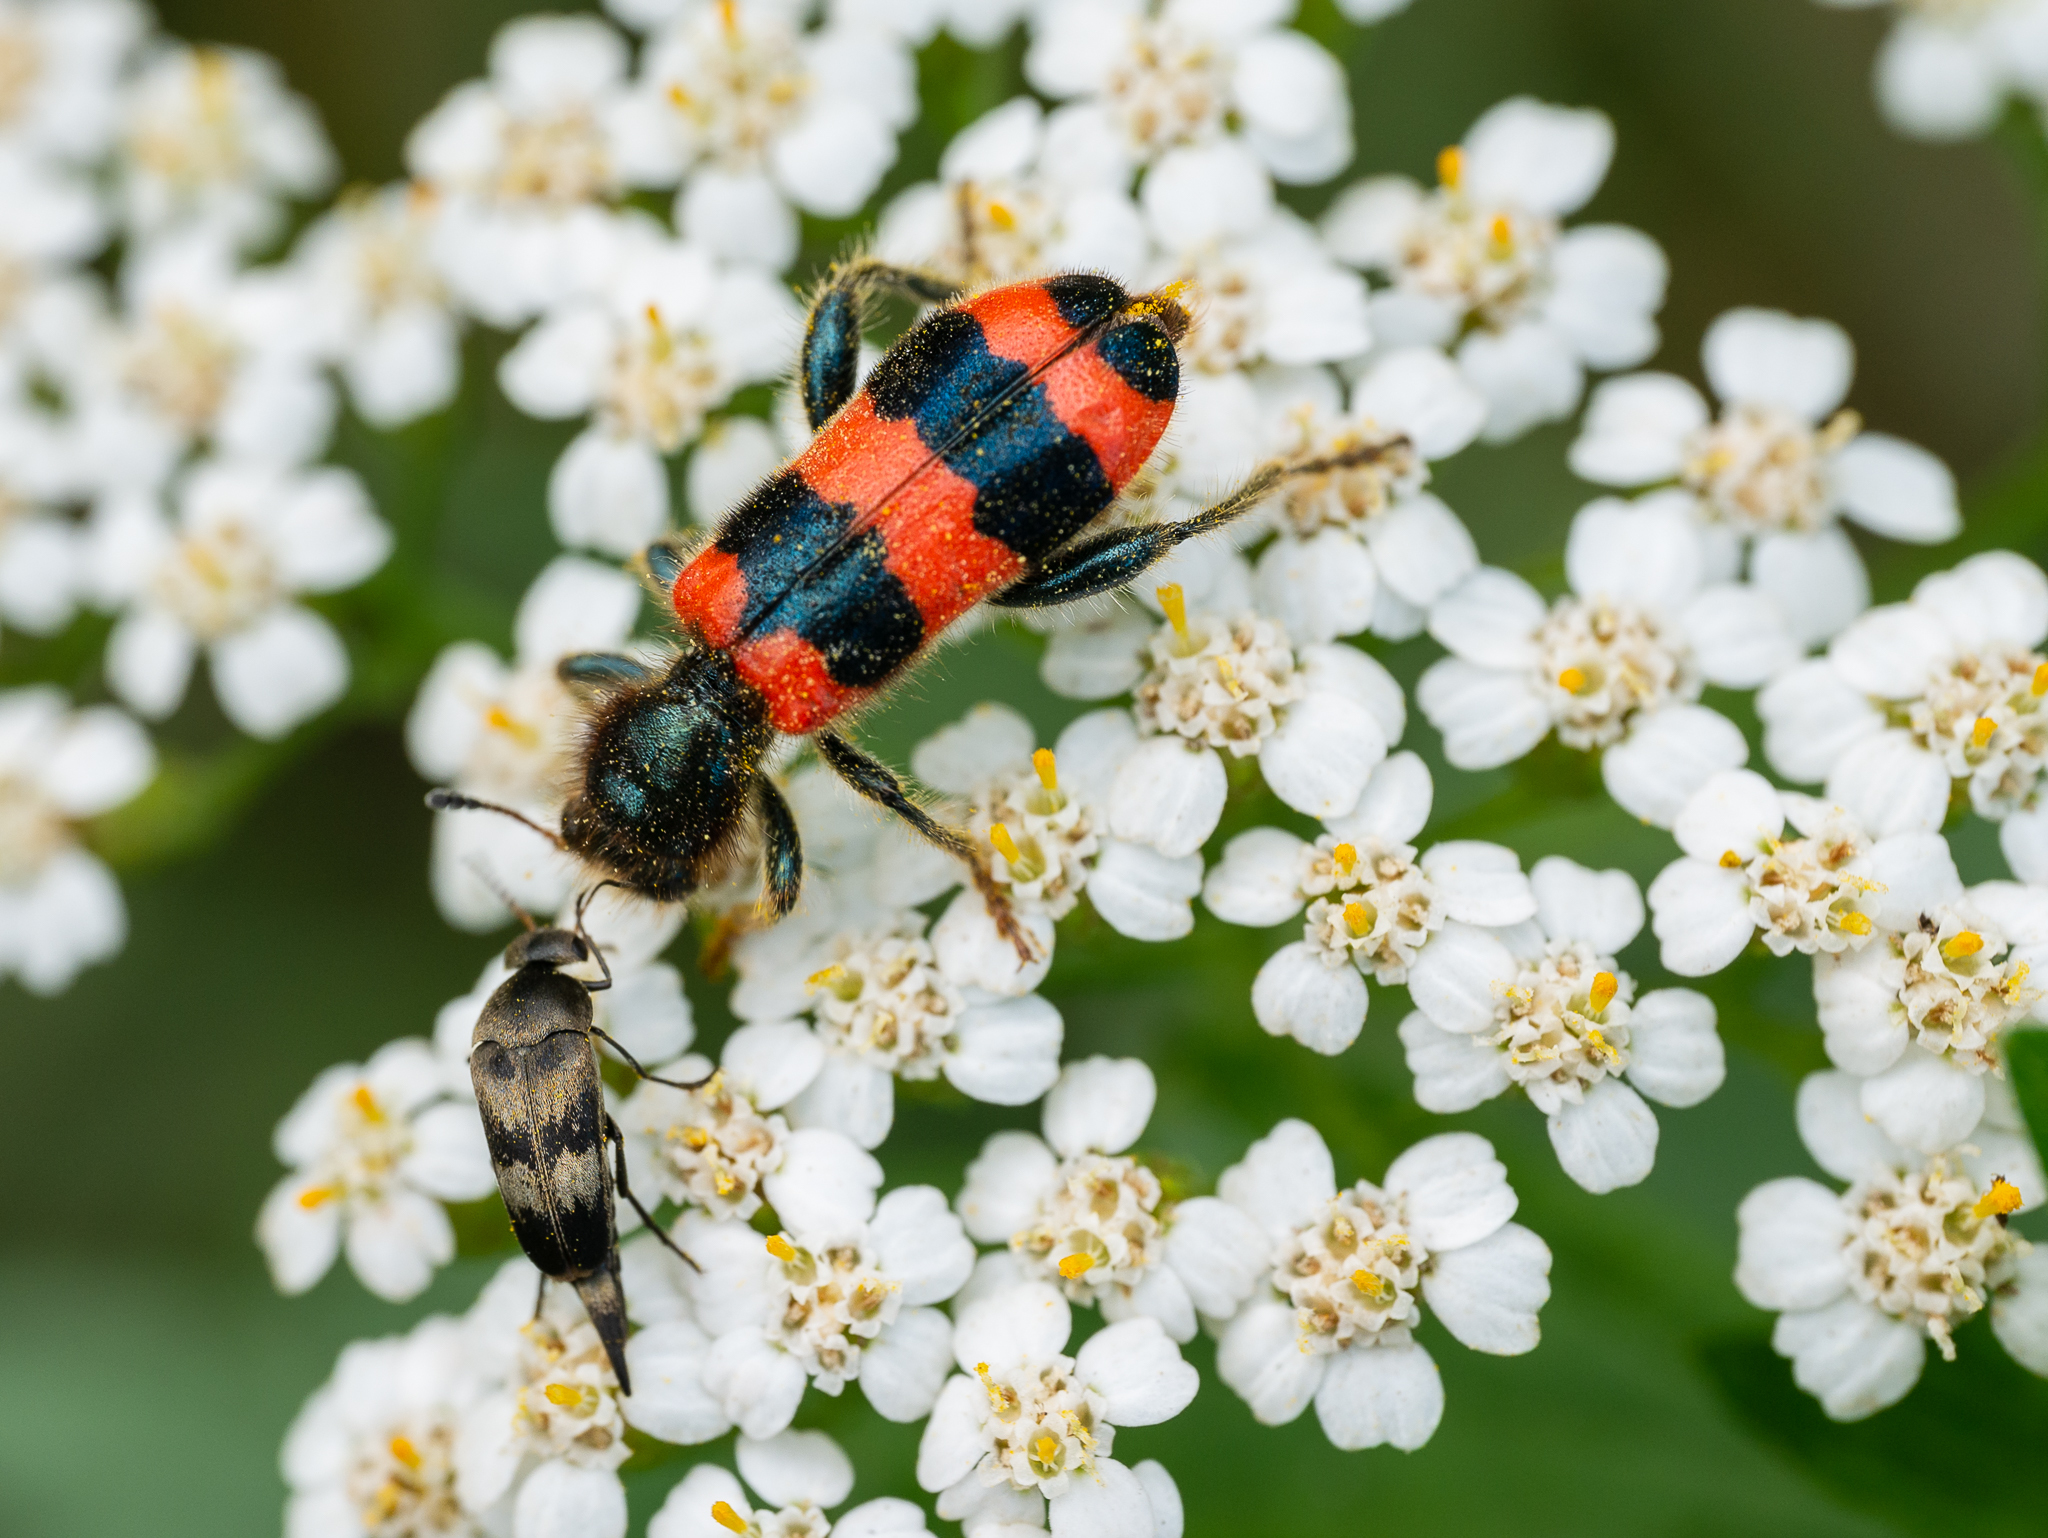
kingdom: Animalia
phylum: Arthropoda
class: Insecta
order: Coleoptera
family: Mordellidae
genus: Variimorda
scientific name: Variimorda villosa
